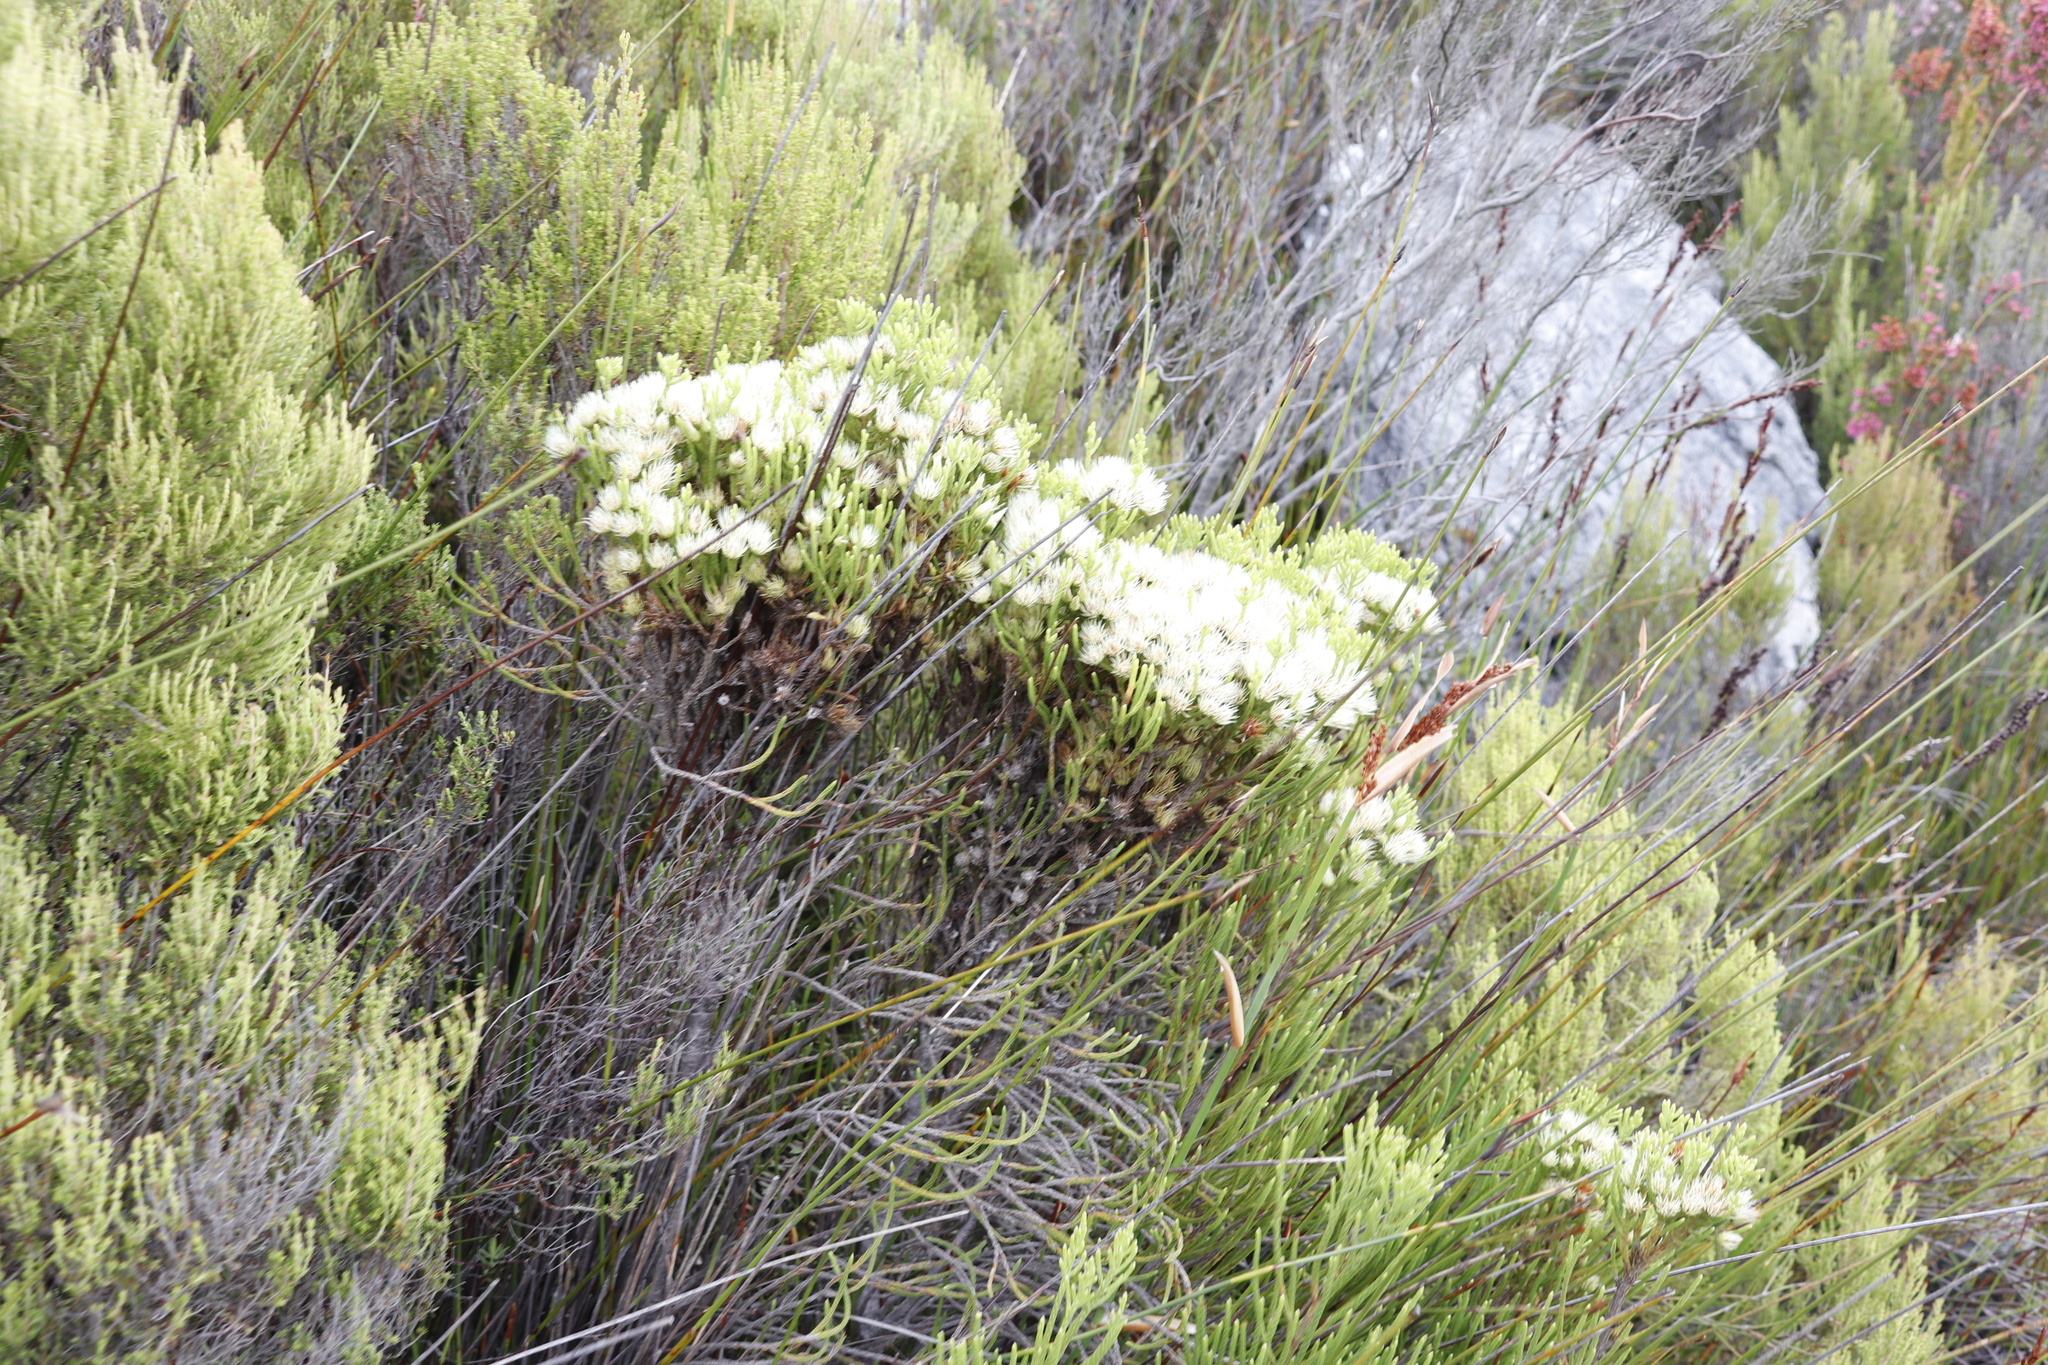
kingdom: Plantae
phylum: Tracheophyta
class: Magnoliopsida
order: Bruniales
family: Bruniaceae
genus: Brunia
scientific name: Brunia paleacea
